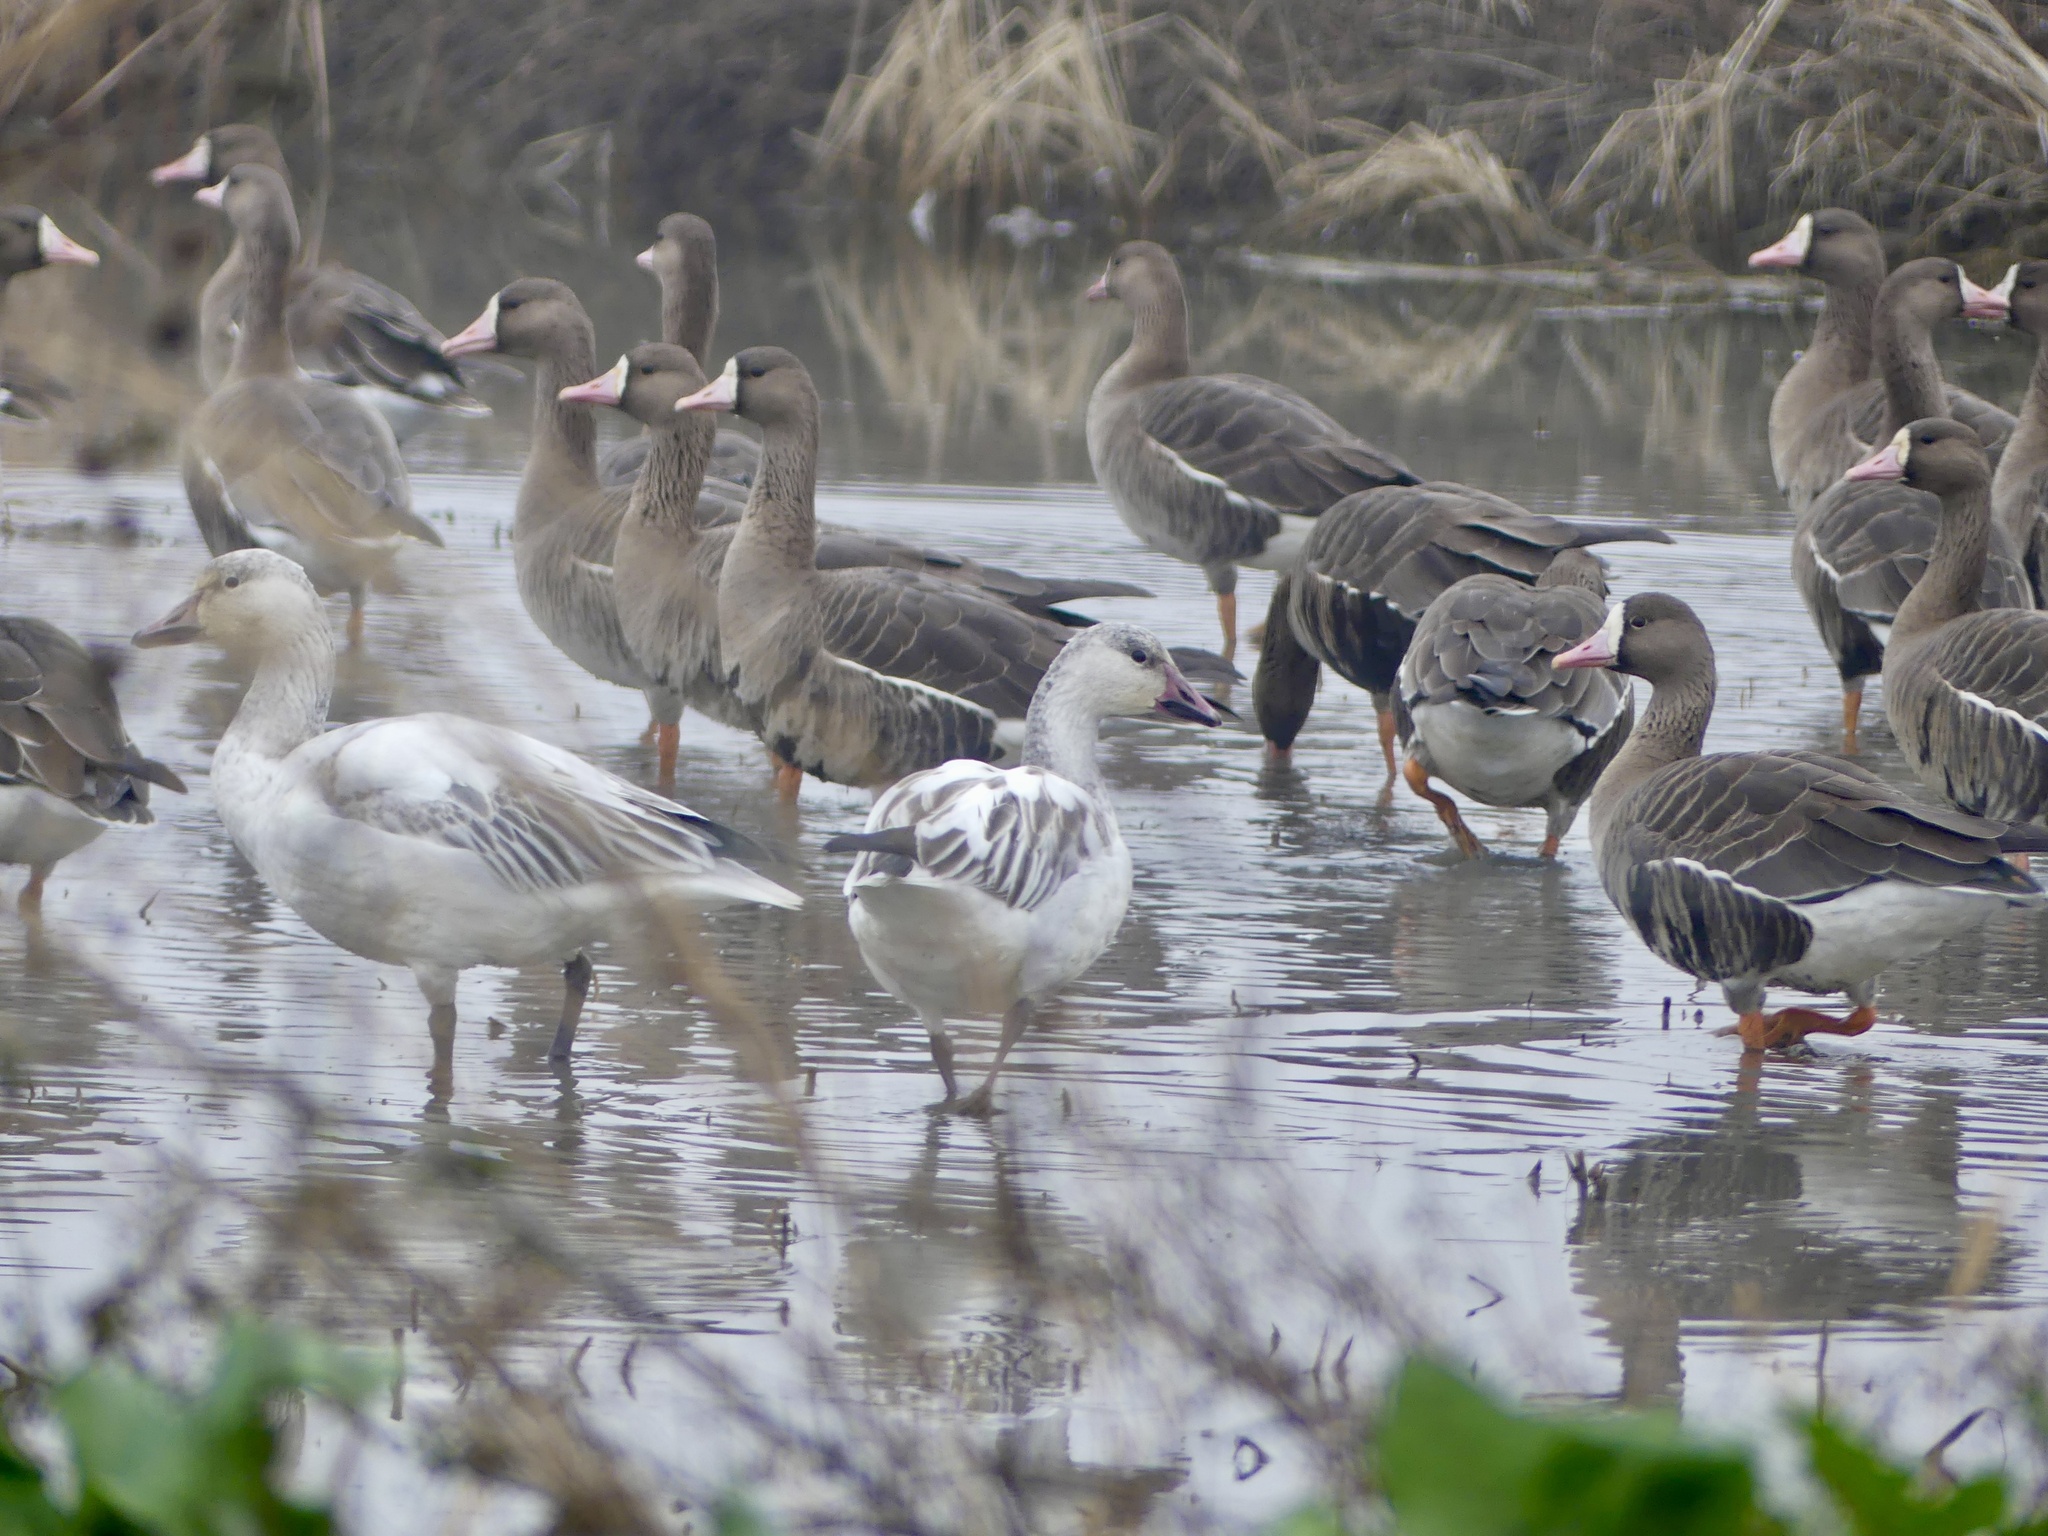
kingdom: Animalia
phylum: Chordata
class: Aves
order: Anseriformes
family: Anatidae
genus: Anser
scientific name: Anser caerulescens
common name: Snow goose
